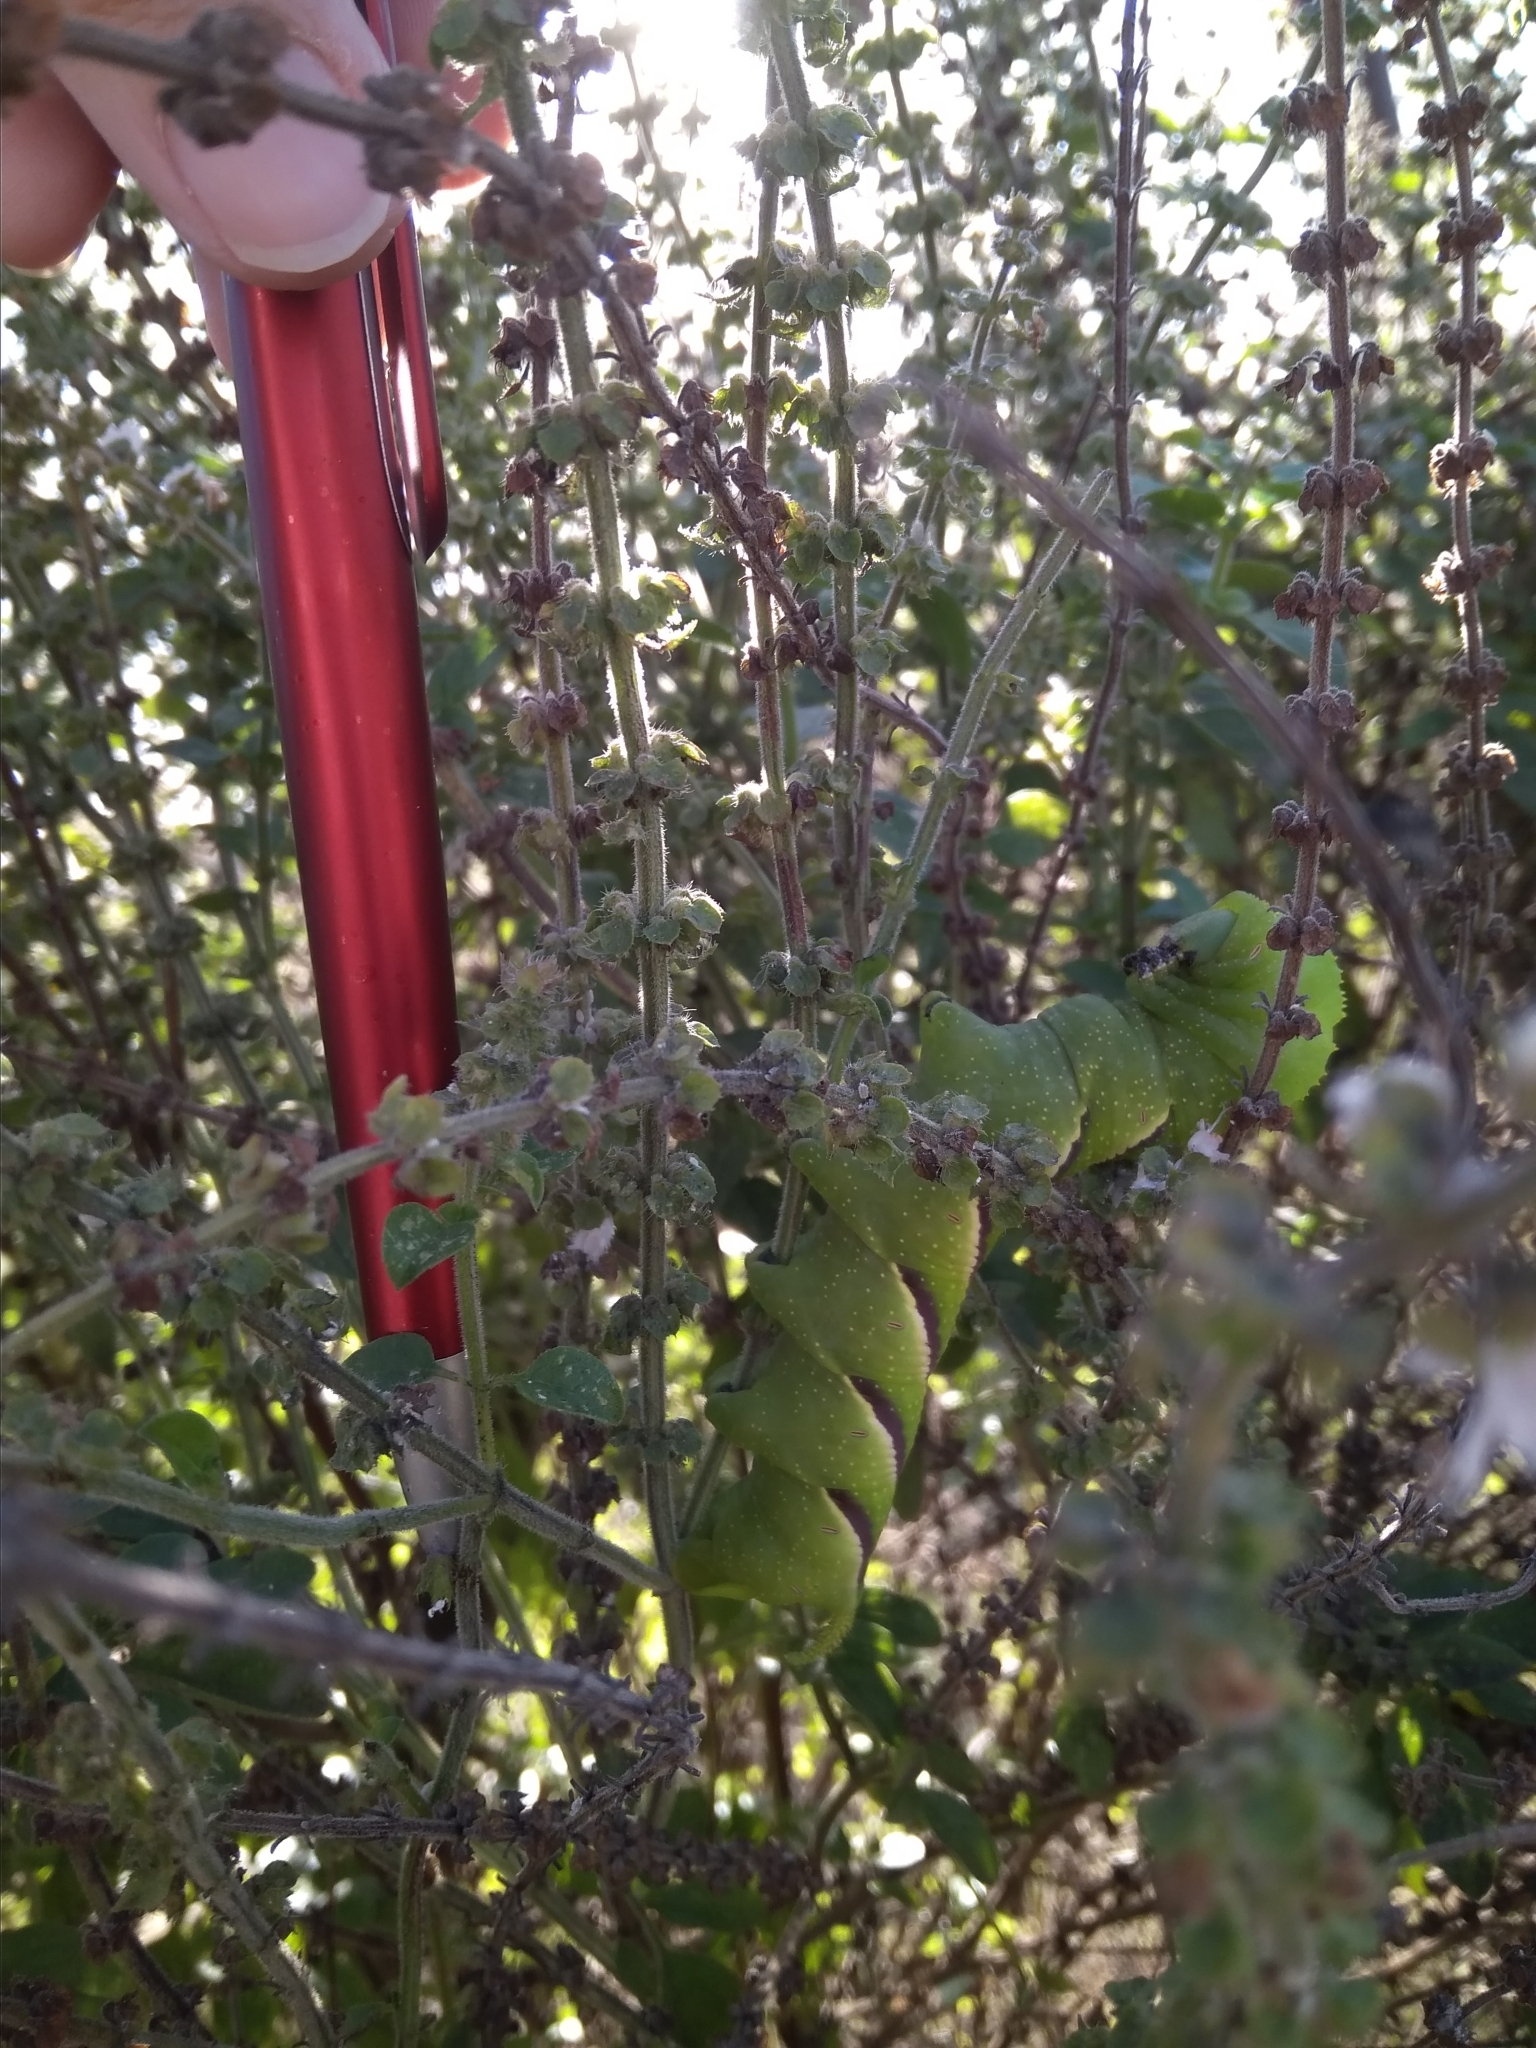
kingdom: Animalia
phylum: Arthropoda
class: Insecta
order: Lepidoptera
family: Sphingidae
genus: Manduca
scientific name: Manduca rustica
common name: Rustic sphinx
